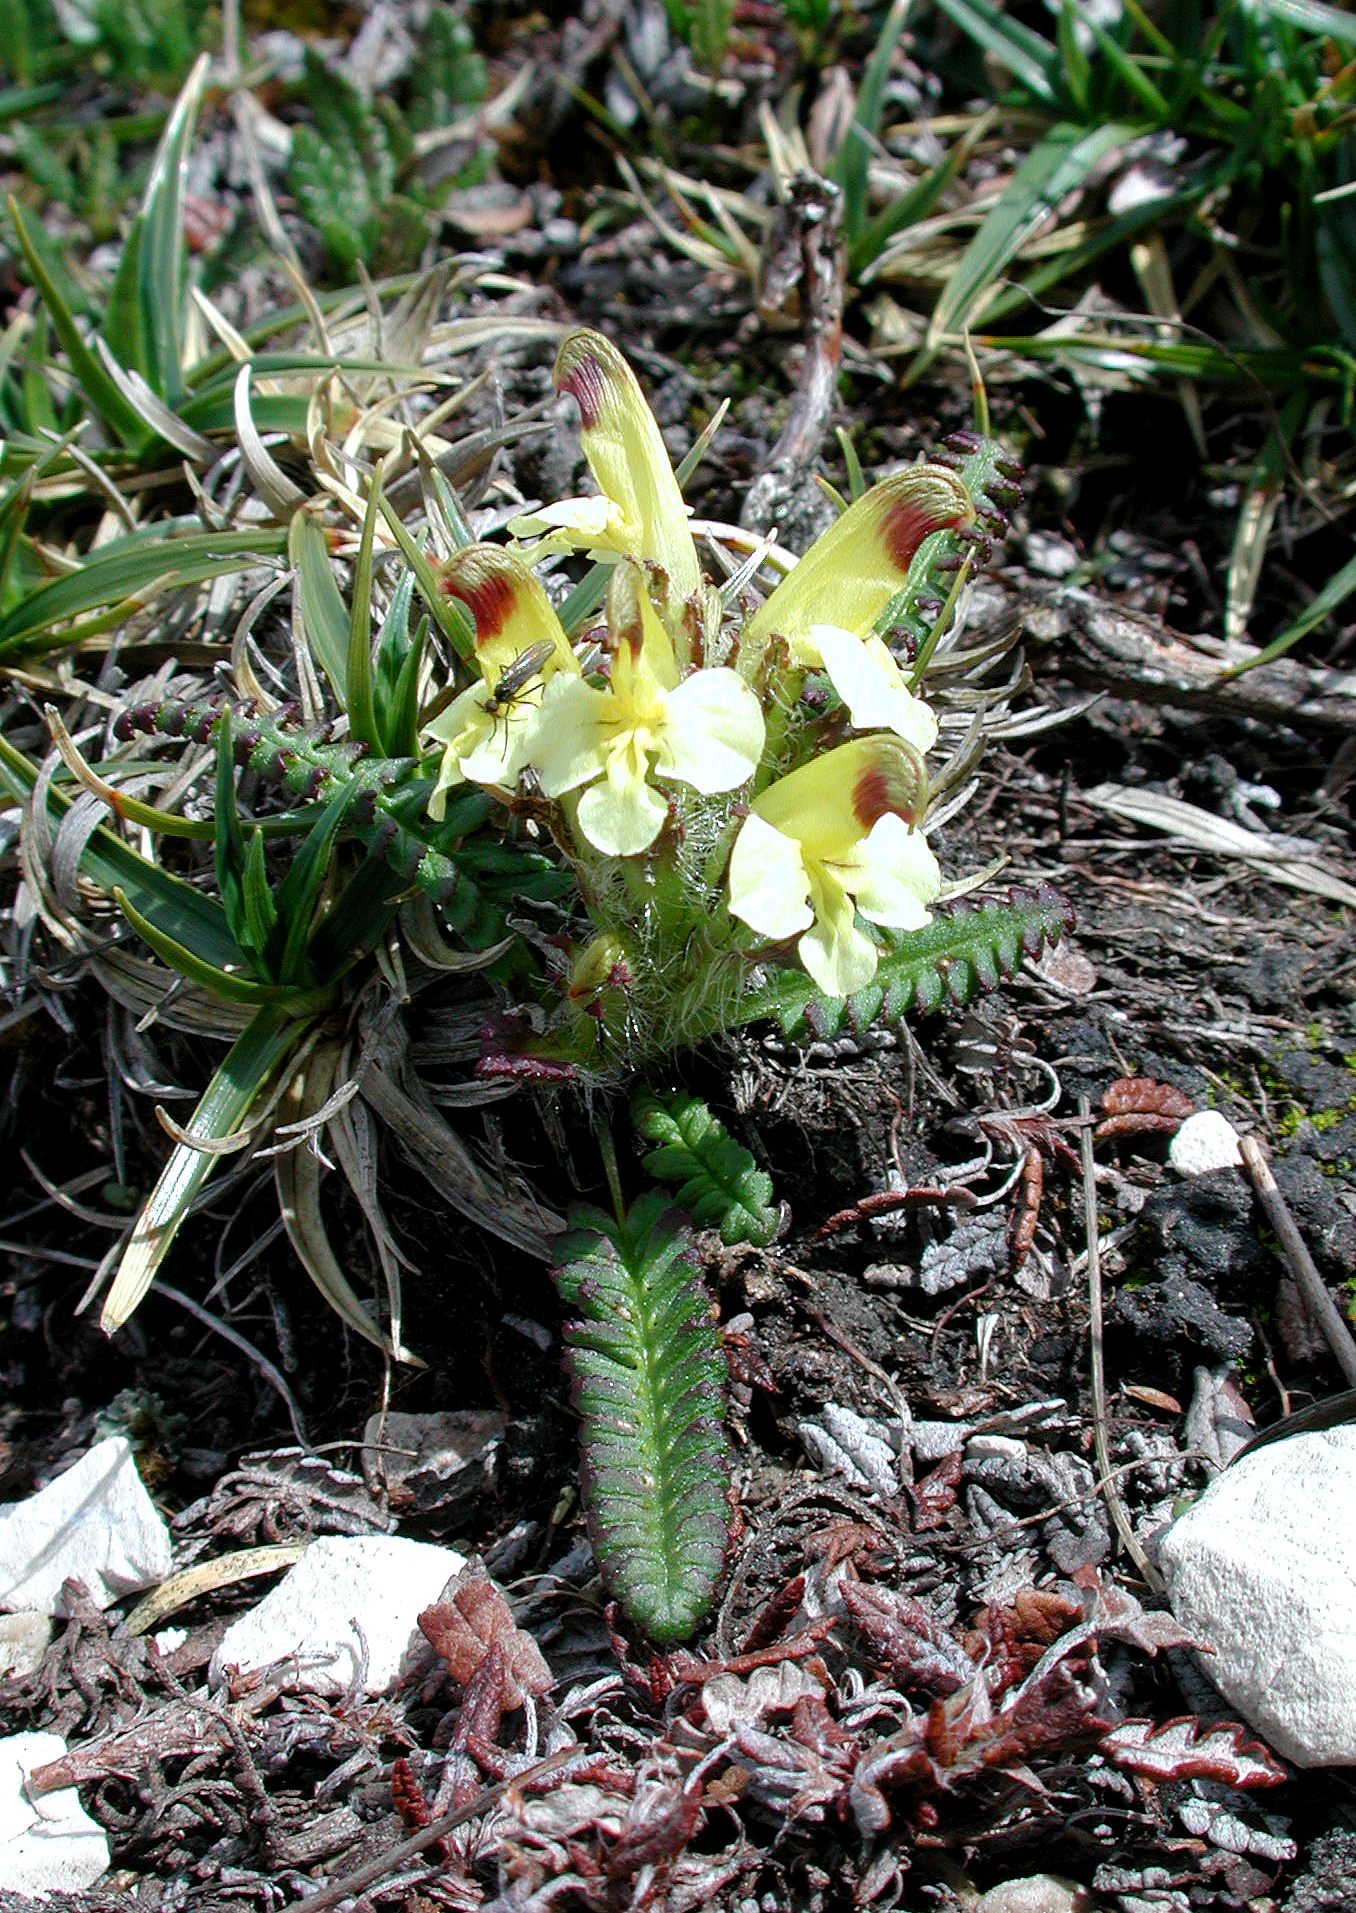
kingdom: Plantae
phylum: Tracheophyta
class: Magnoliopsida
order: Lamiales
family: Orobanchaceae
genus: Pedicularis
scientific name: Pedicularis oederi
